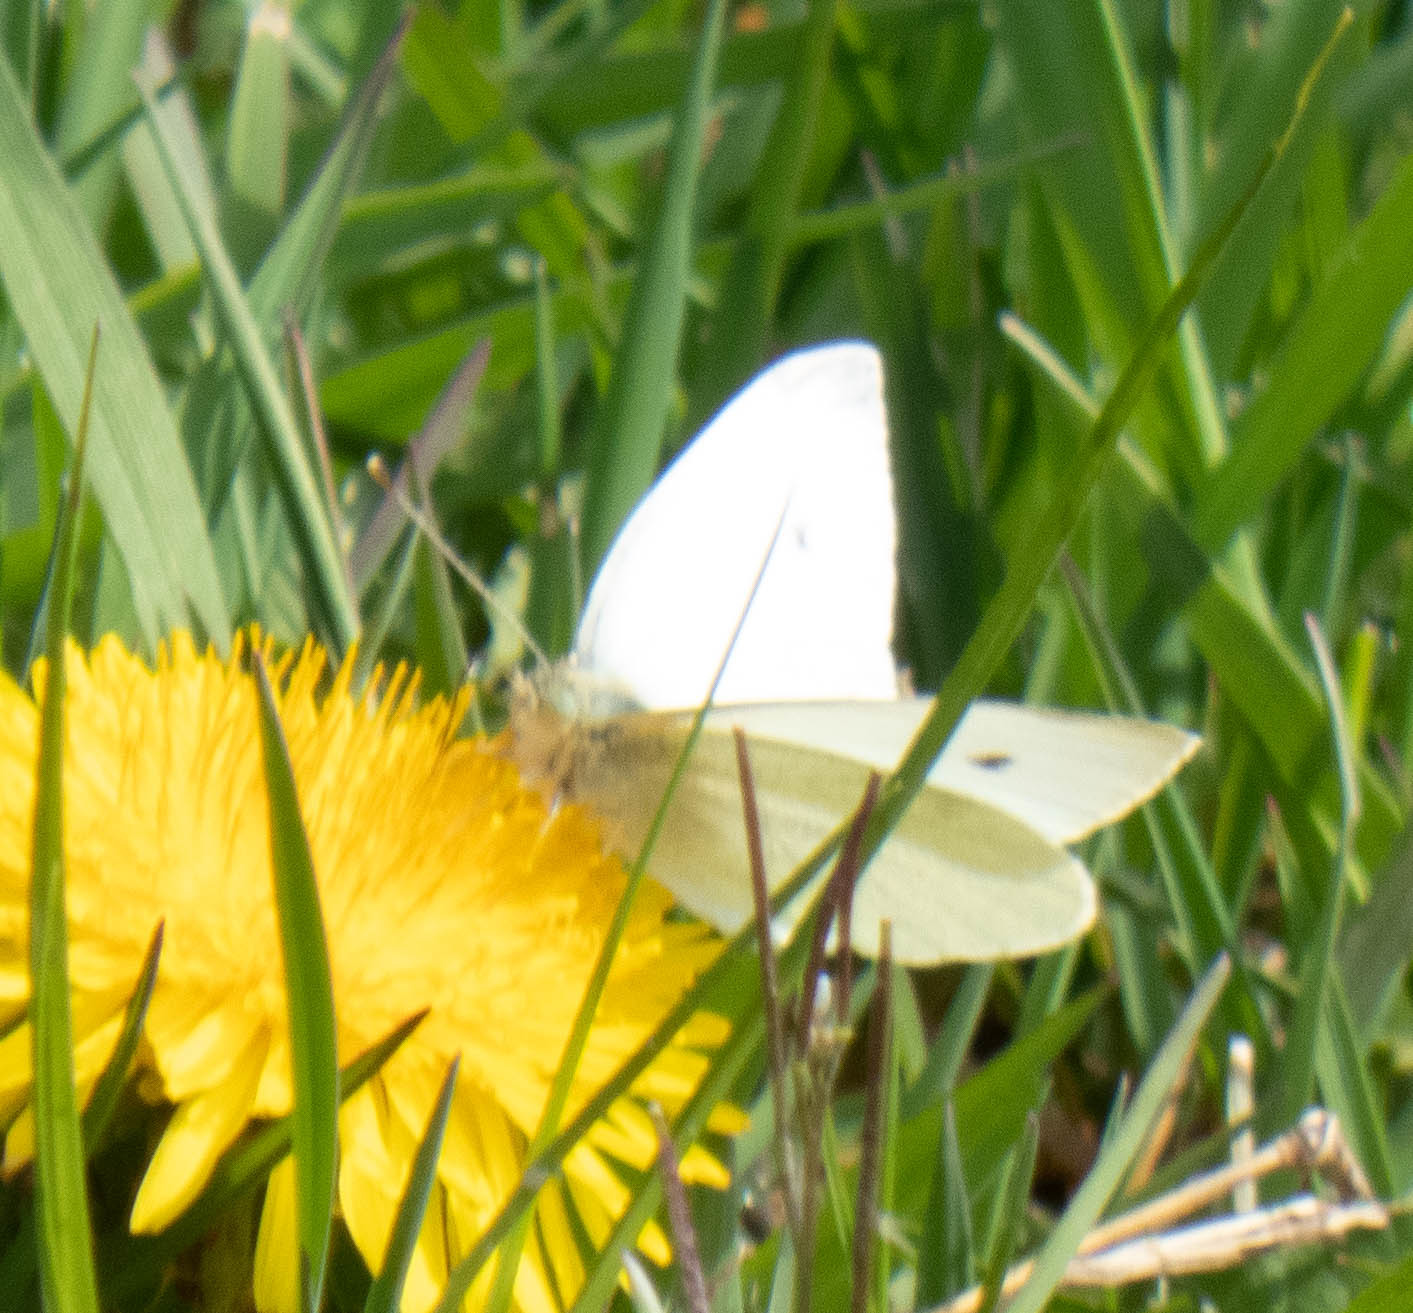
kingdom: Animalia
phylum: Arthropoda
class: Insecta
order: Lepidoptera
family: Pieridae
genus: Pieris
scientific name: Pieris rapae
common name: Small white
